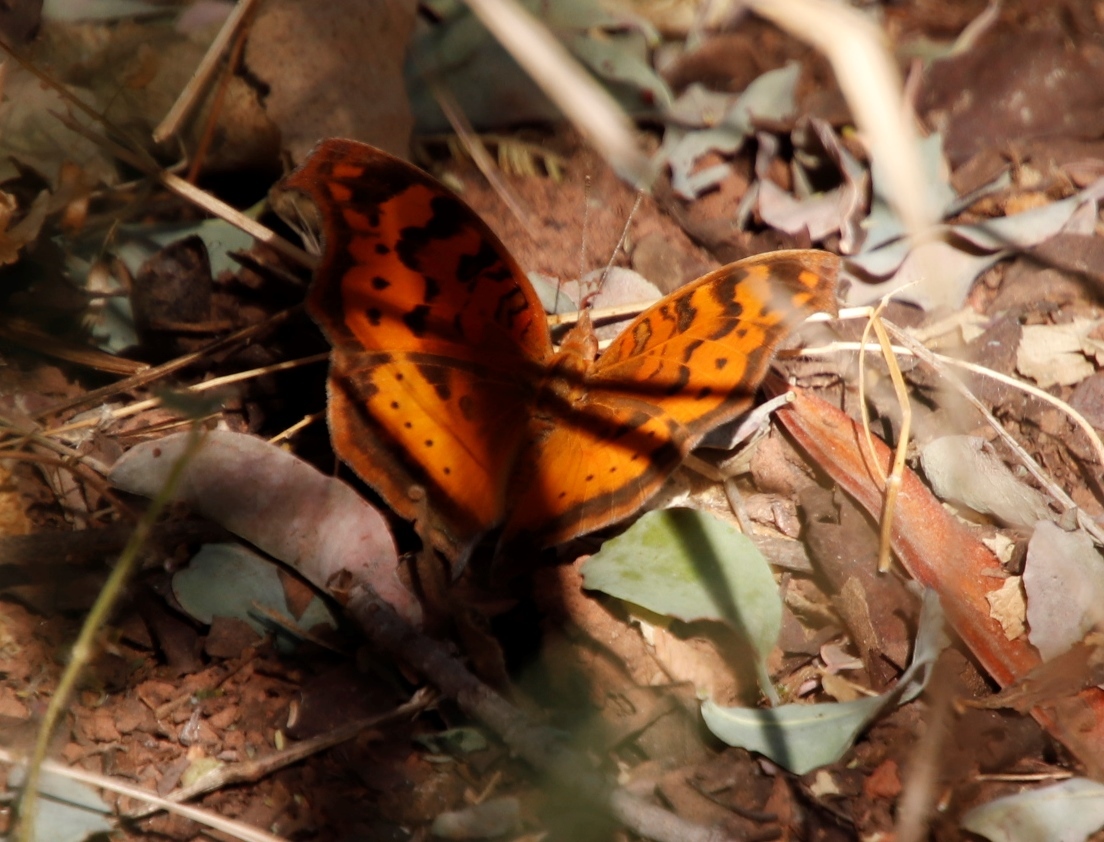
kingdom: Animalia
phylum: Arthropoda
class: Insecta
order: Lepidoptera
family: Nymphalidae
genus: Junonia
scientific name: Junonia antilope
